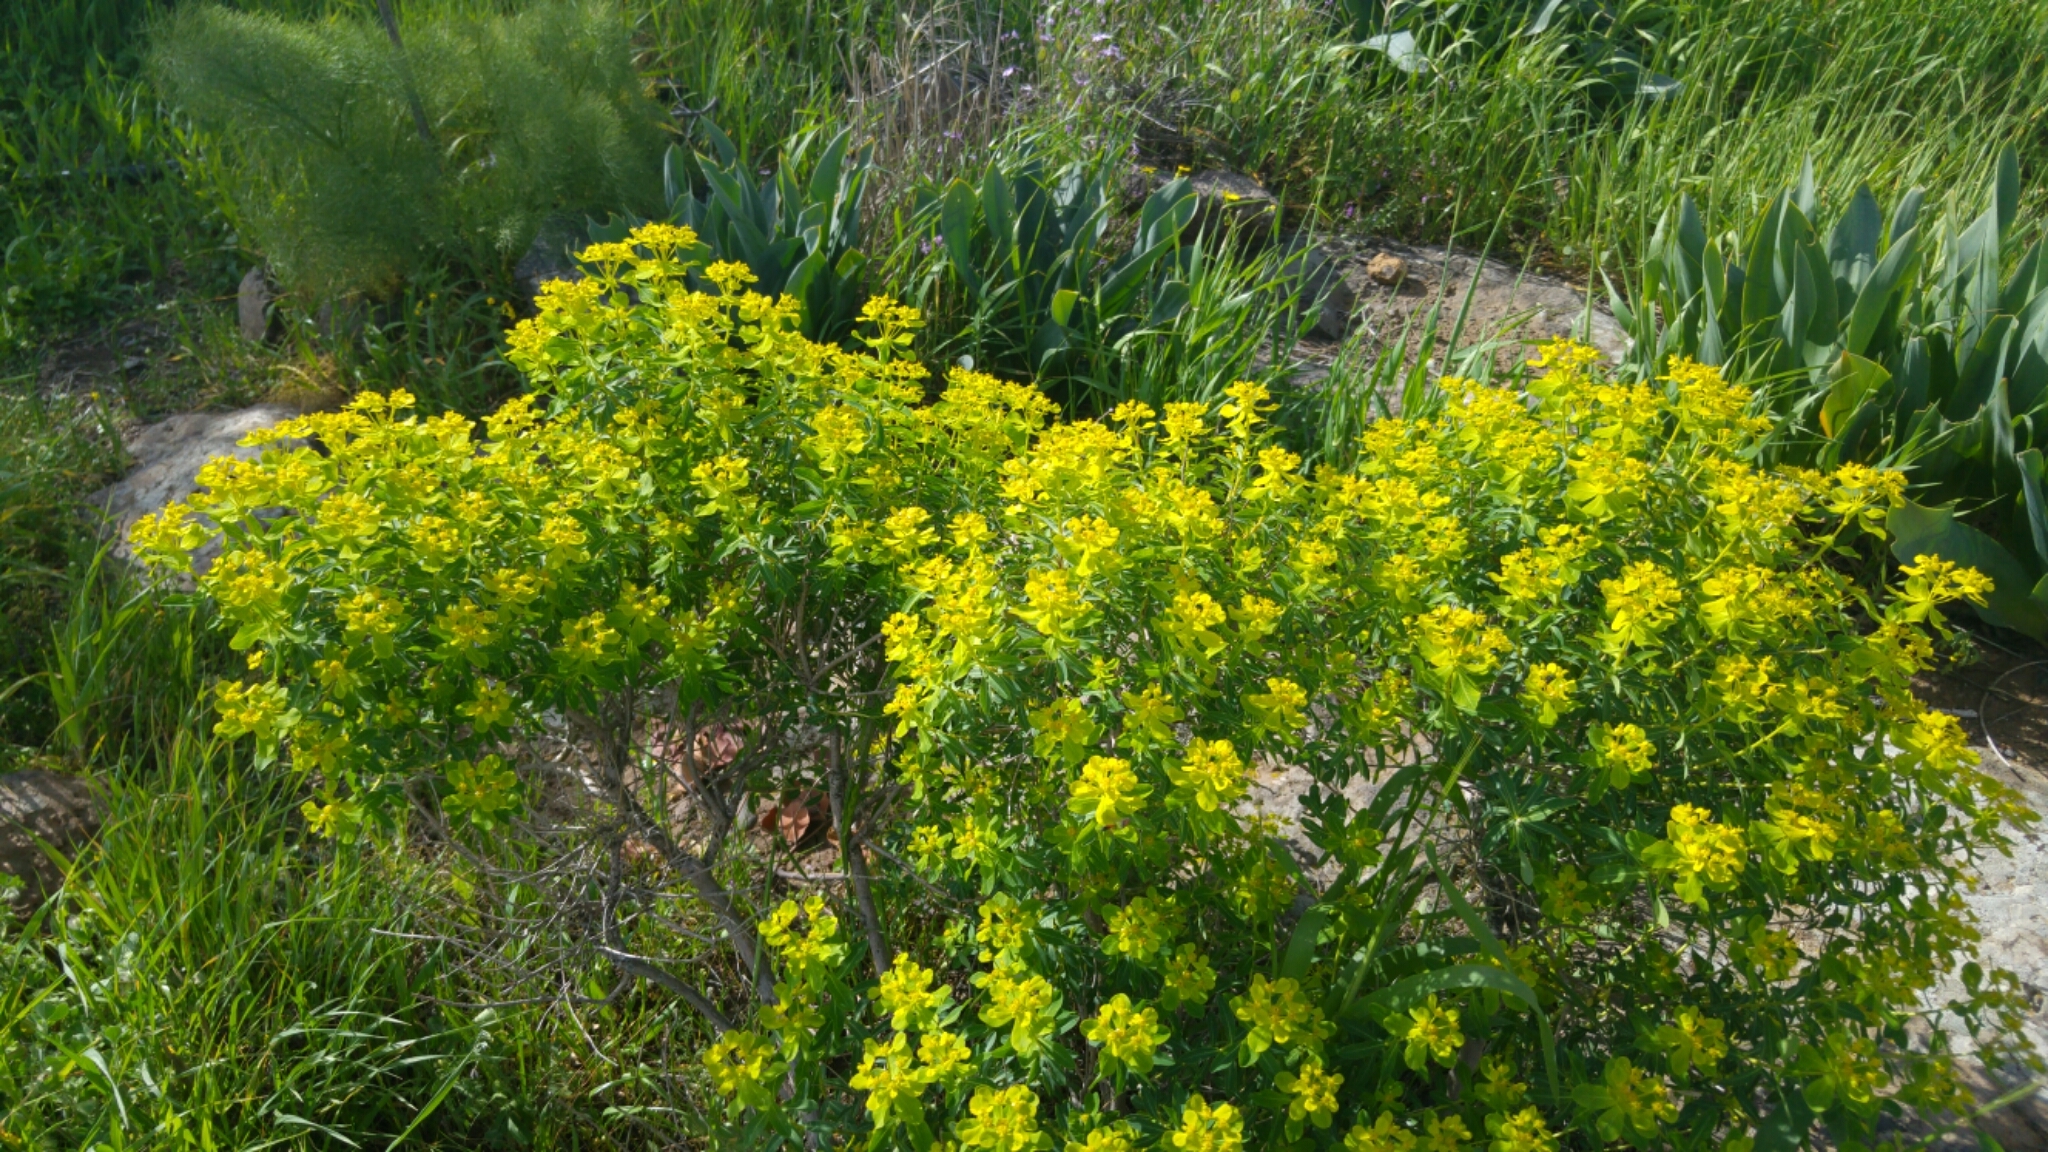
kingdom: Plantae
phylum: Tracheophyta
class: Magnoliopsida
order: Malpighiales
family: Euphorbiaceae
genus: Euphorbia
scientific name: Euphorbia hierosolymitana
